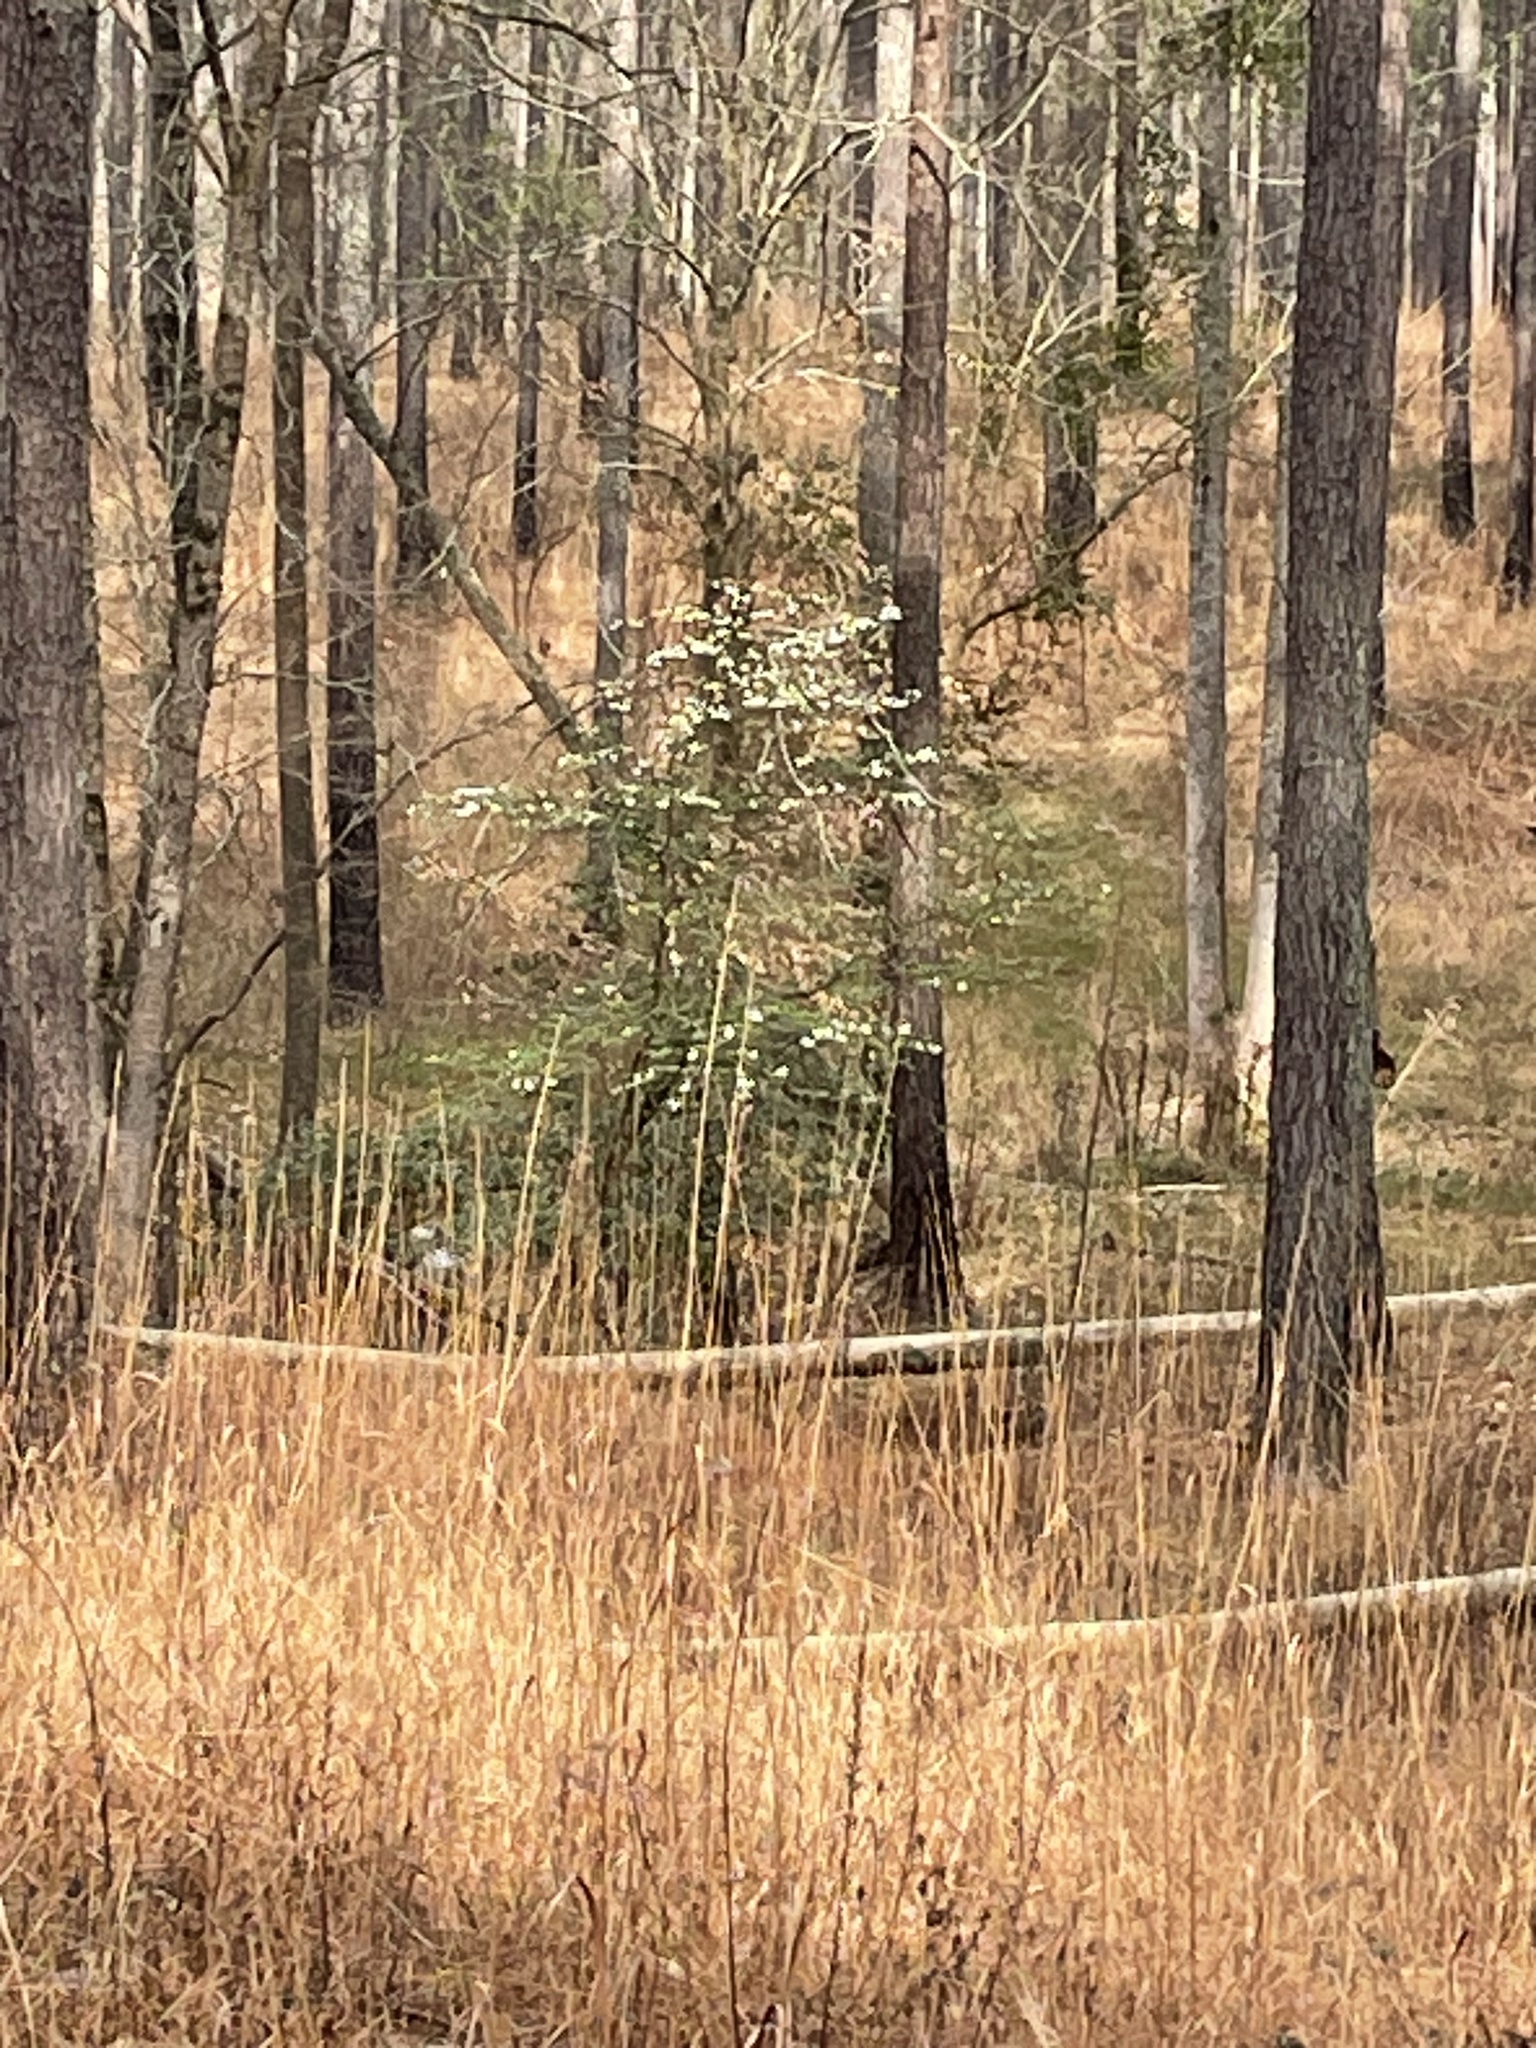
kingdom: Plantae
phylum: Tracheophyta
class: Magnoliopsida
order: Cornales
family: Cornaceae
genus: Cornus
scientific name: Cornus florida
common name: Flowering dogwood
